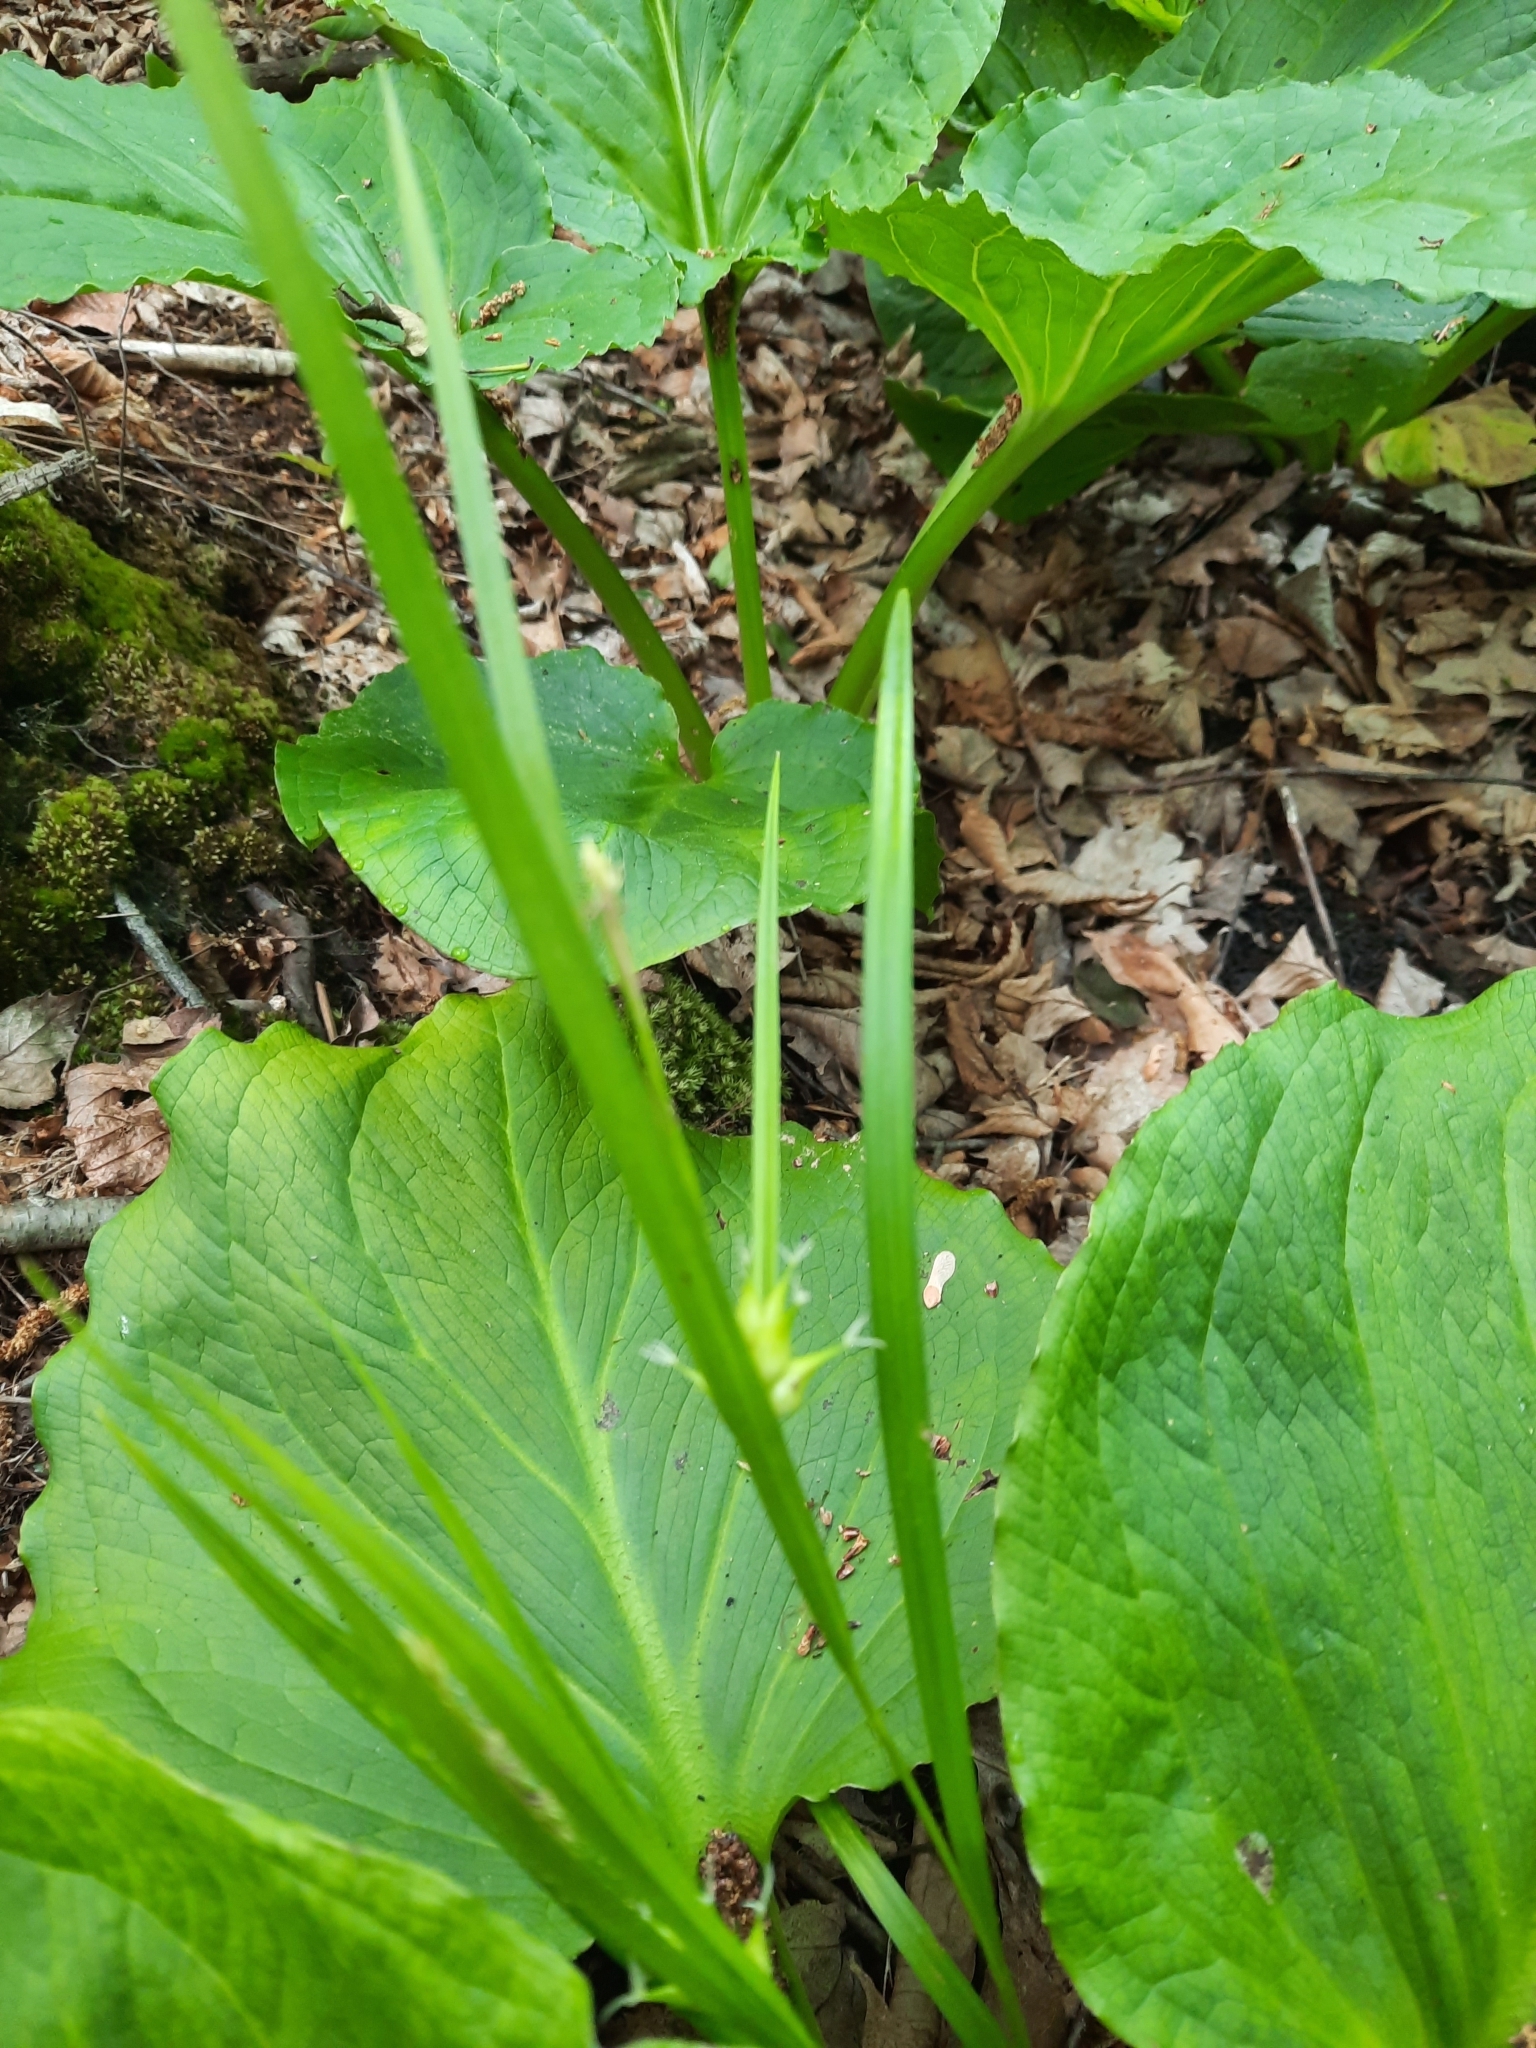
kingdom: Plantae
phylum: Tracheophyta
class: Liliopsida
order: Poales
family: Cyperaceae
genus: Carex
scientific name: Carex intumescens
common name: Greater bladder sedge
